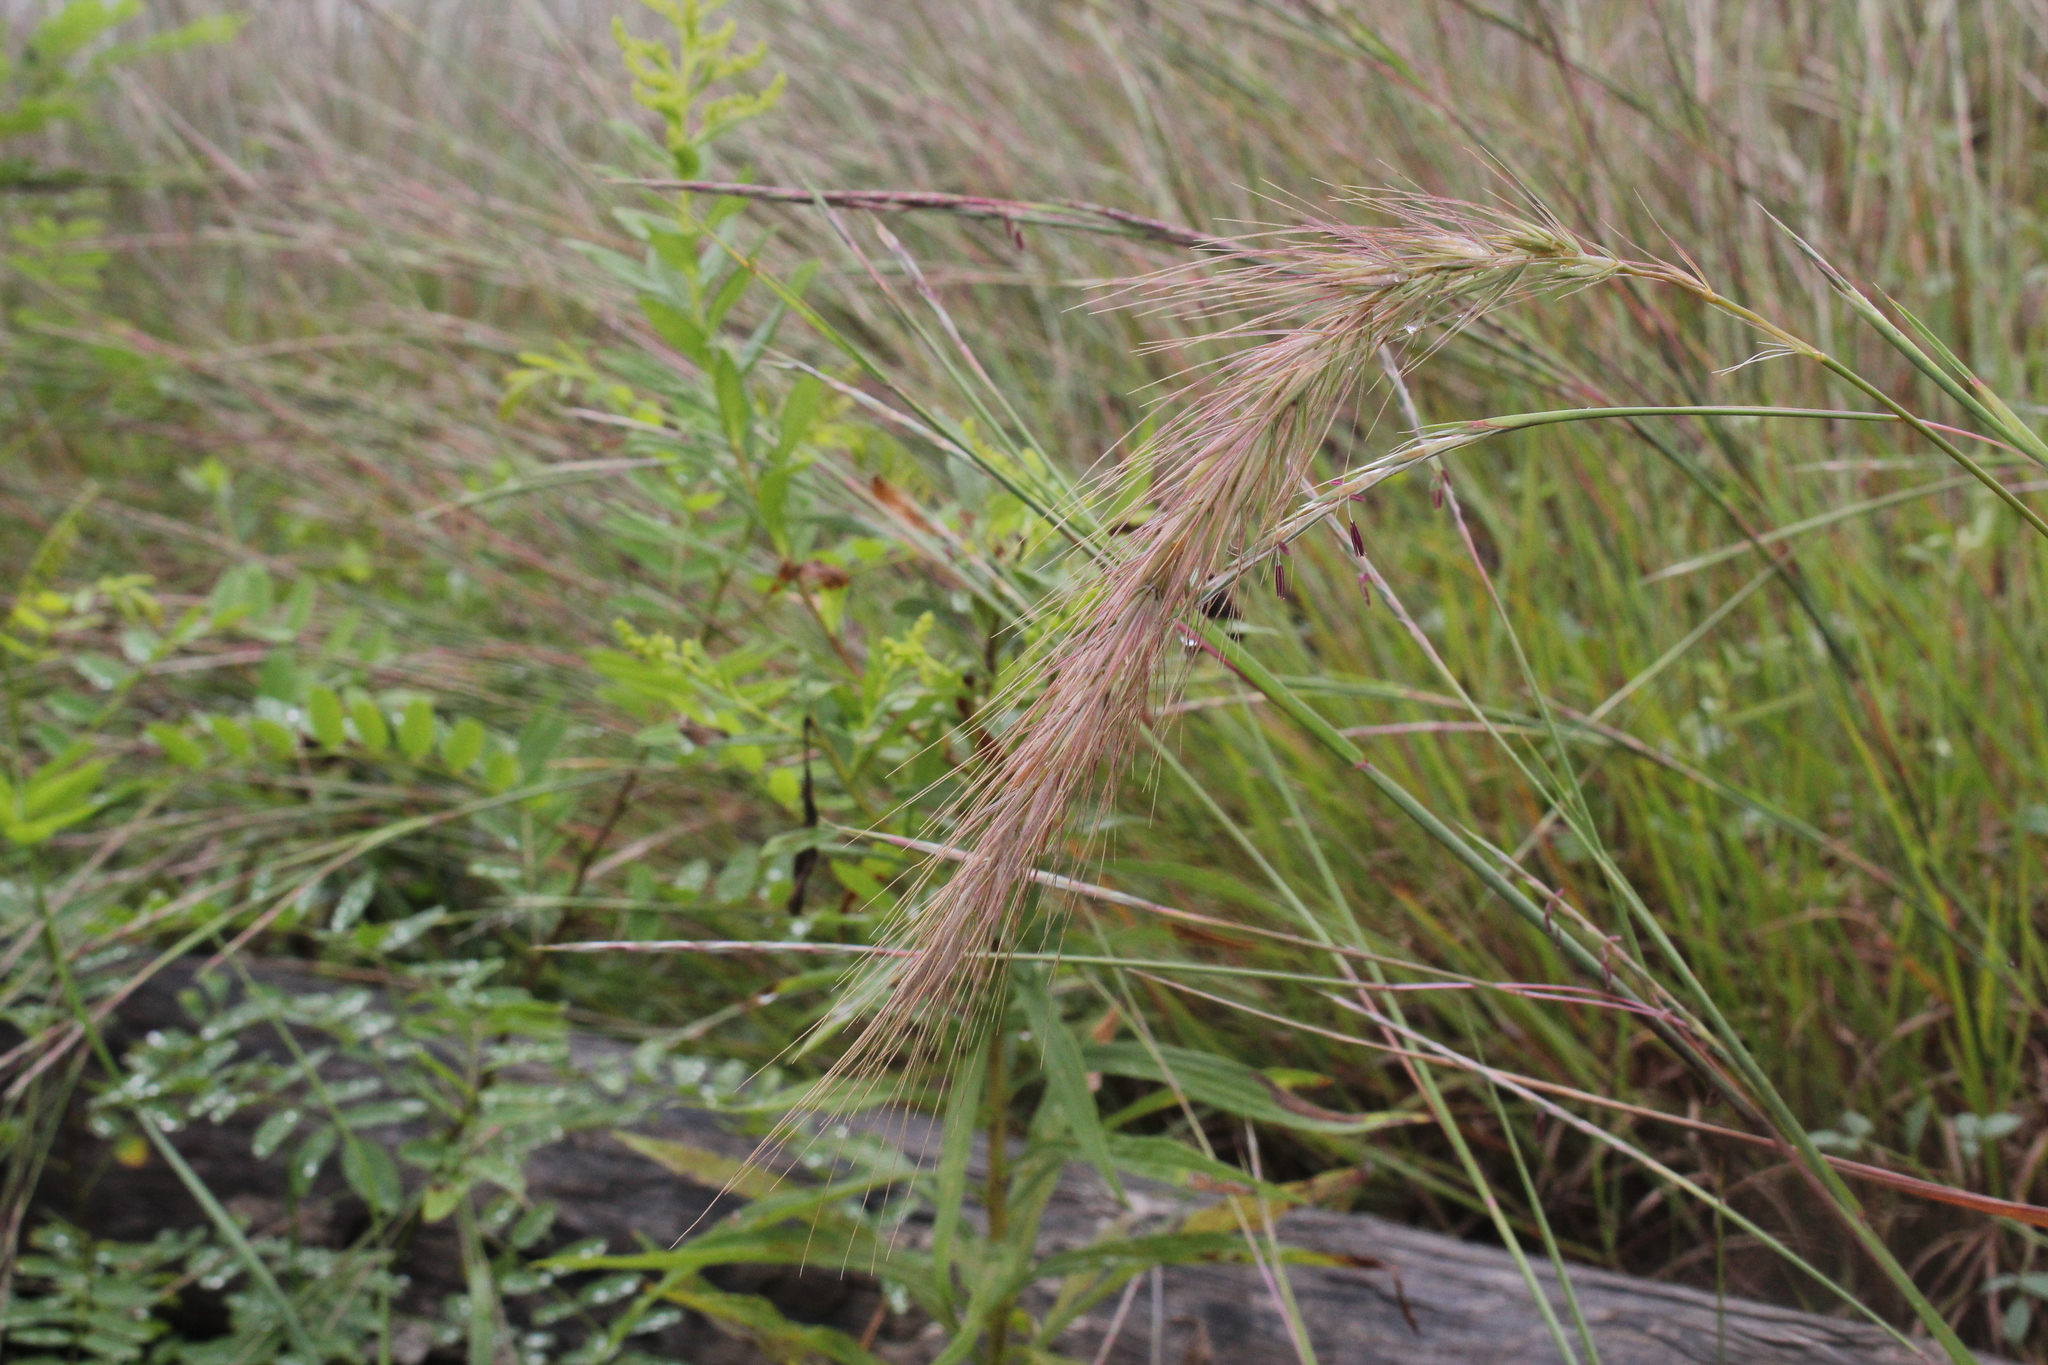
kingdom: Plantae
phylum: Tracheophyta
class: Liliopsida
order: Poales
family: Poaceae
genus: Elymus
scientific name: Elymus canadensis
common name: Canada wild rye
